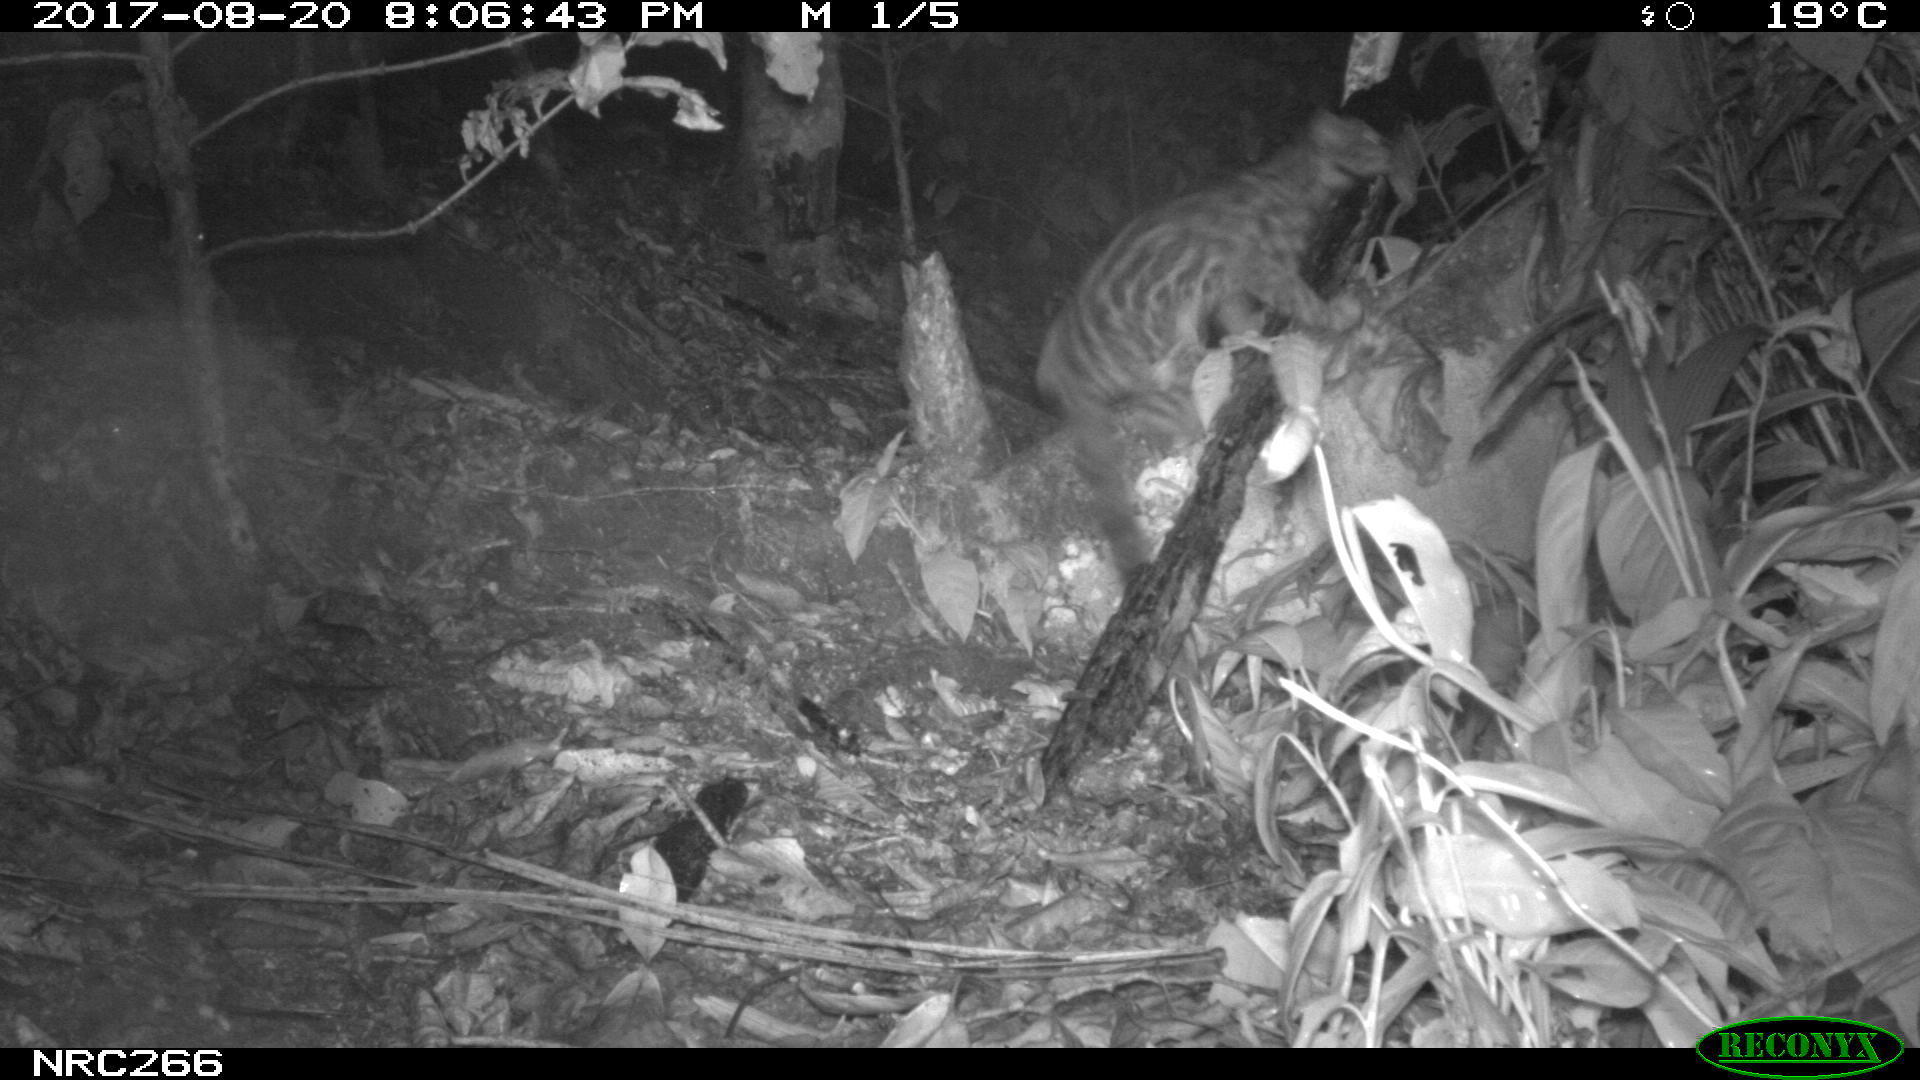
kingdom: Animalia
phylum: Chordata
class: Mammalia
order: Carnivora
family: Felidae
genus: Leopardus
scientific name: Leopardus tigrinus
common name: Oncilla
